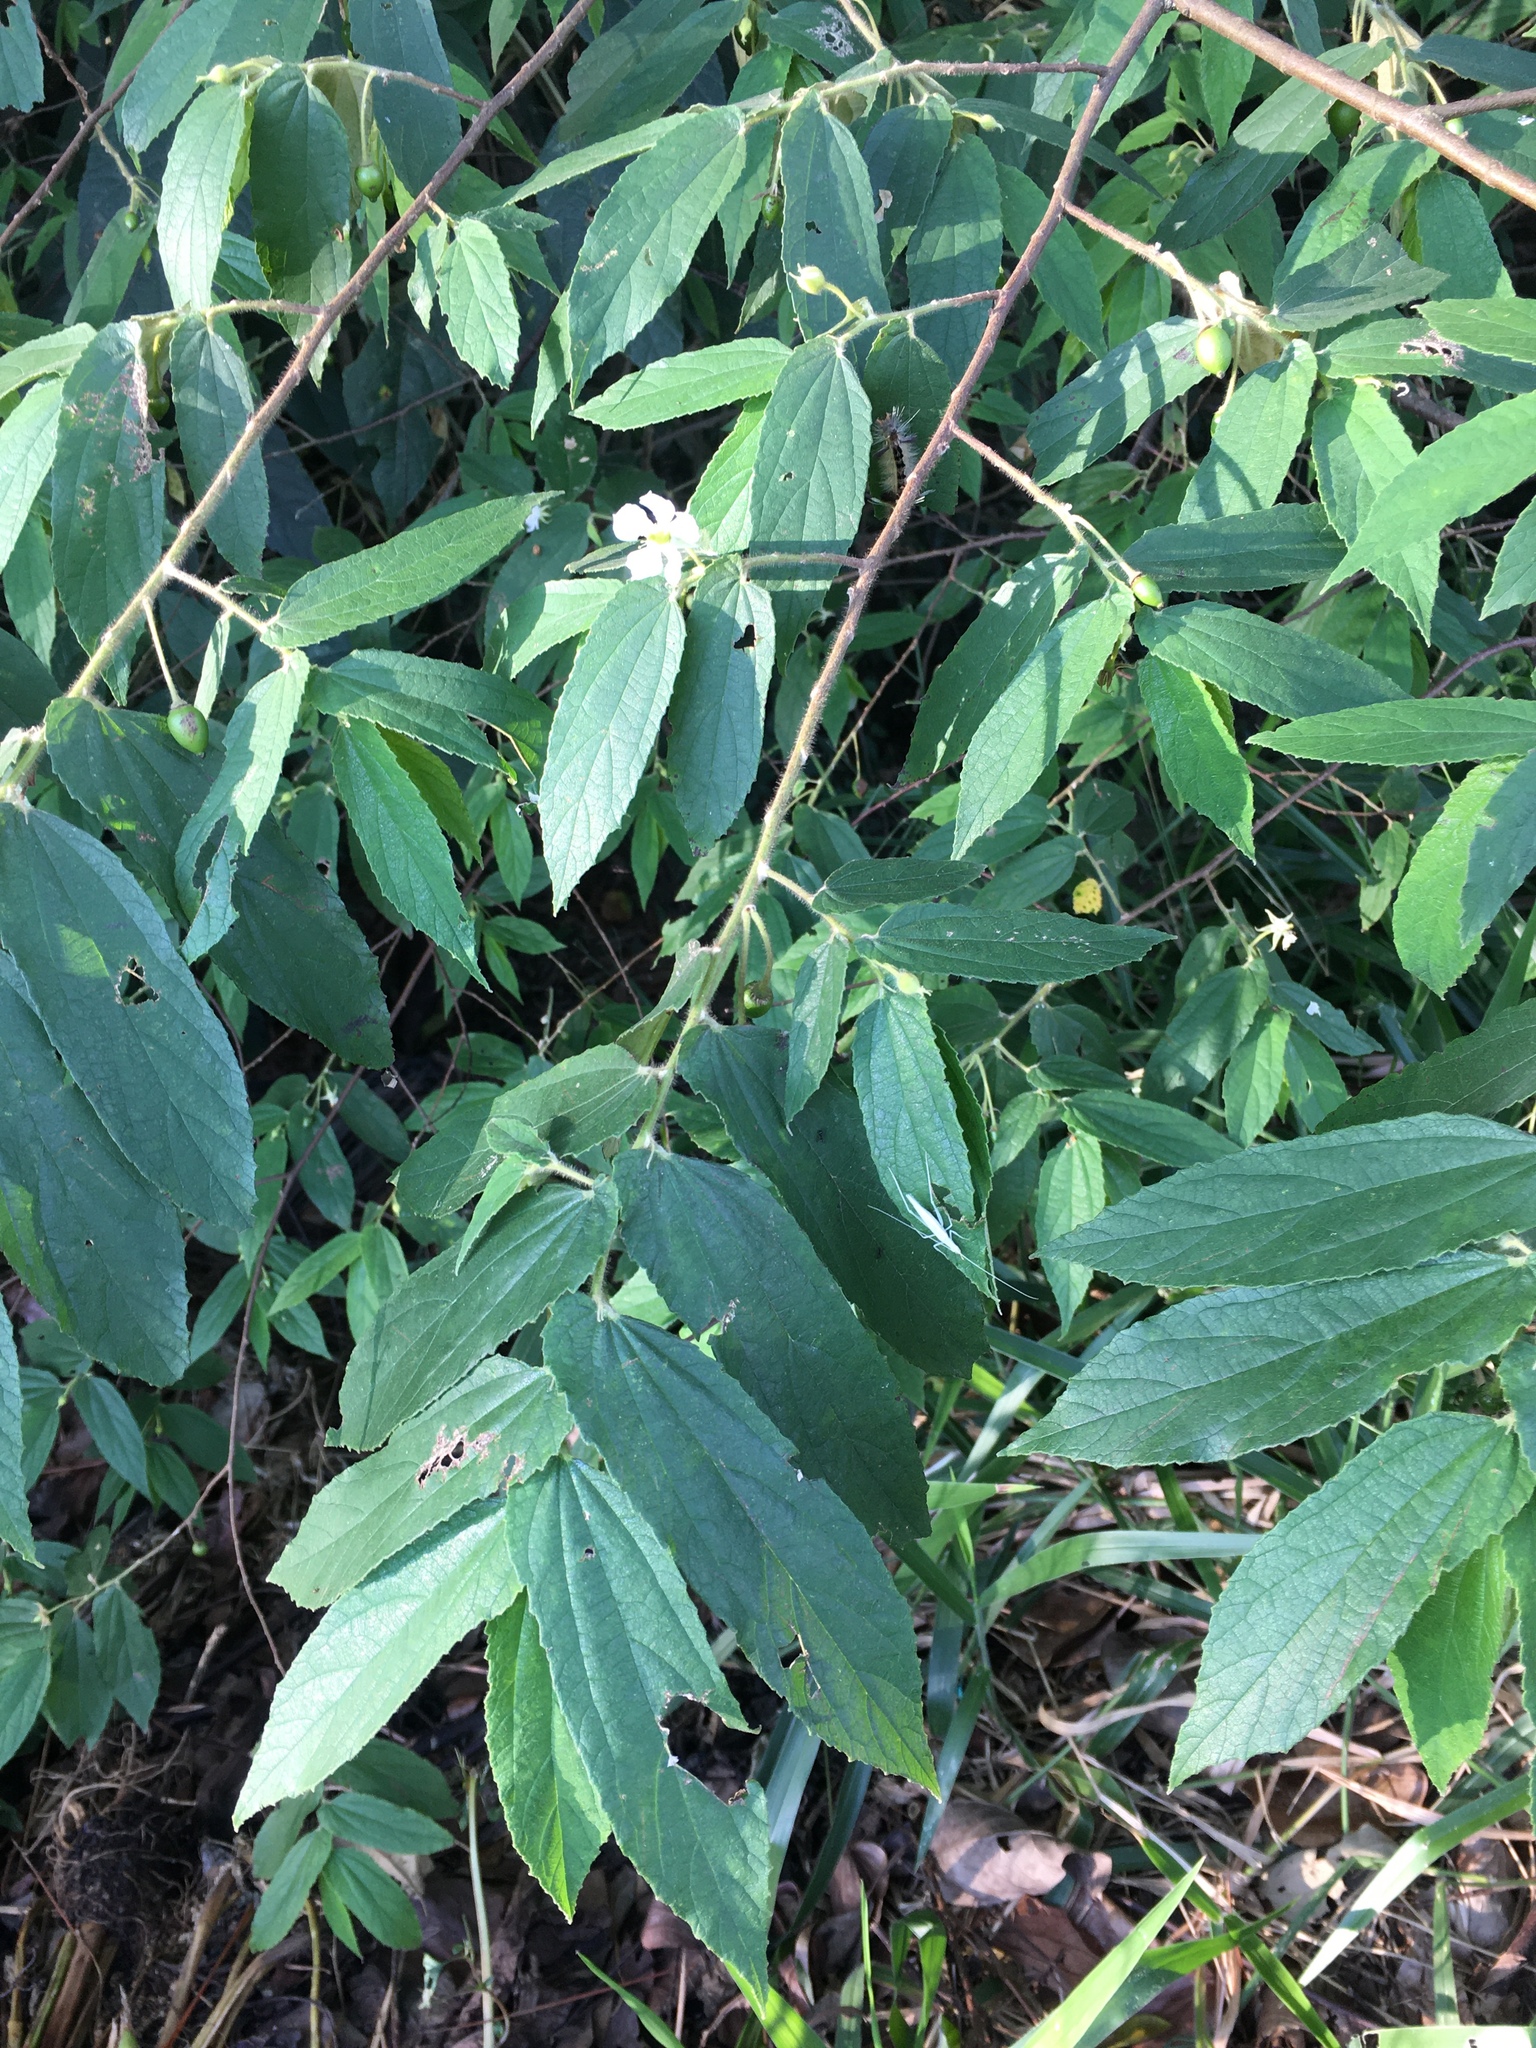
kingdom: Plantae
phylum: Tracheophyta
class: Magnoliopsida
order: Malvales
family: Muntingiaceae
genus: Muntingia
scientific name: Muntingia calabura
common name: Strawberrytree
